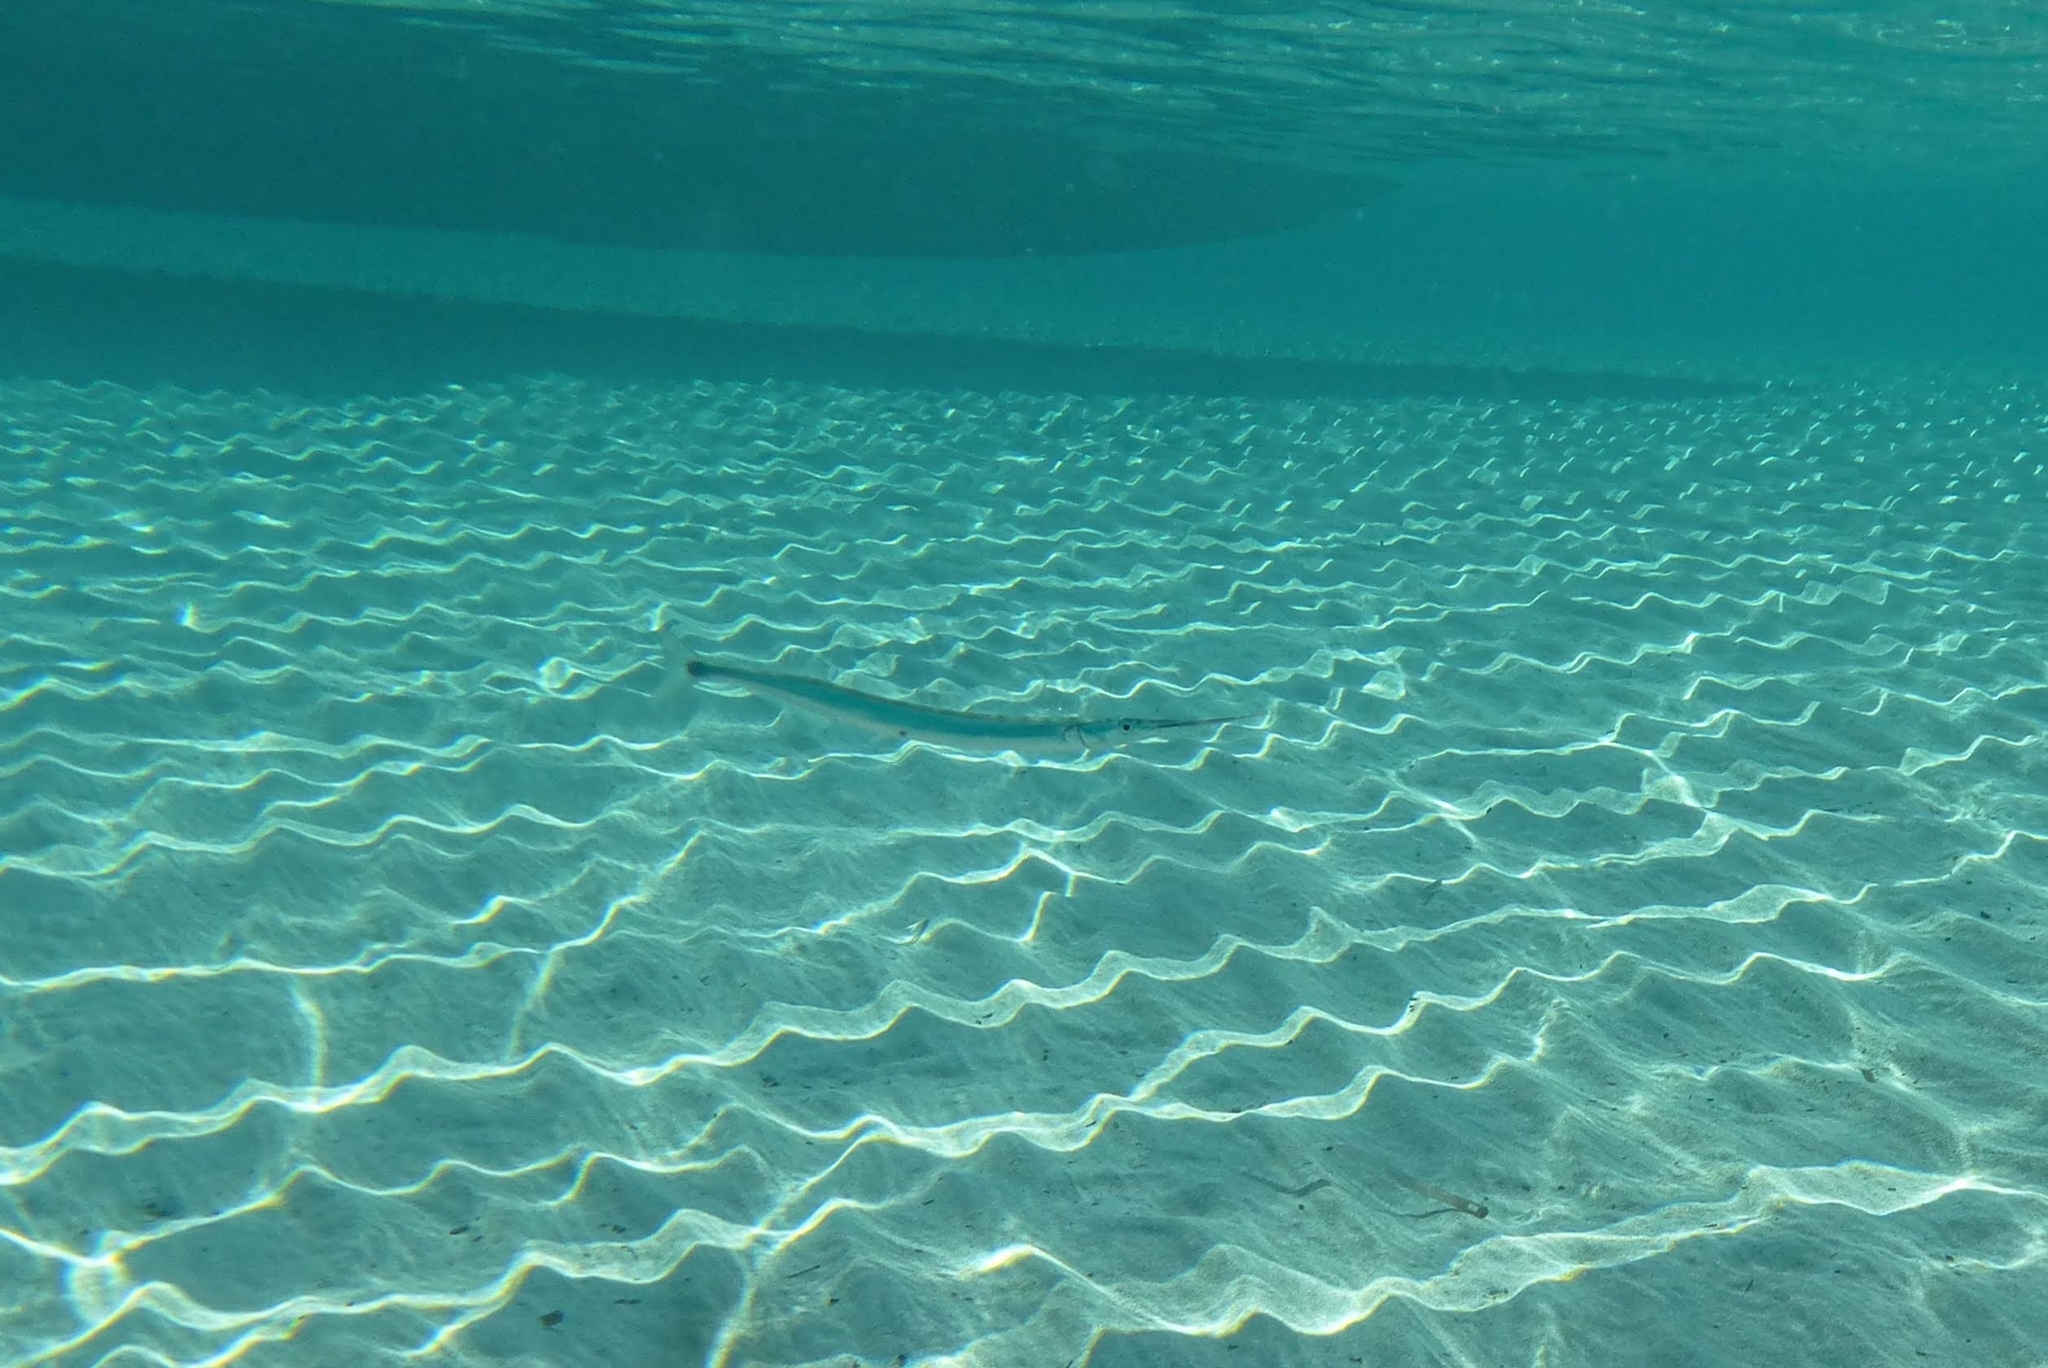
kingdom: Animalia
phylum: Chordata
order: Beloniformes
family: Belonidae
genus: Belone
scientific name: Belone belone
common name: Garfish
